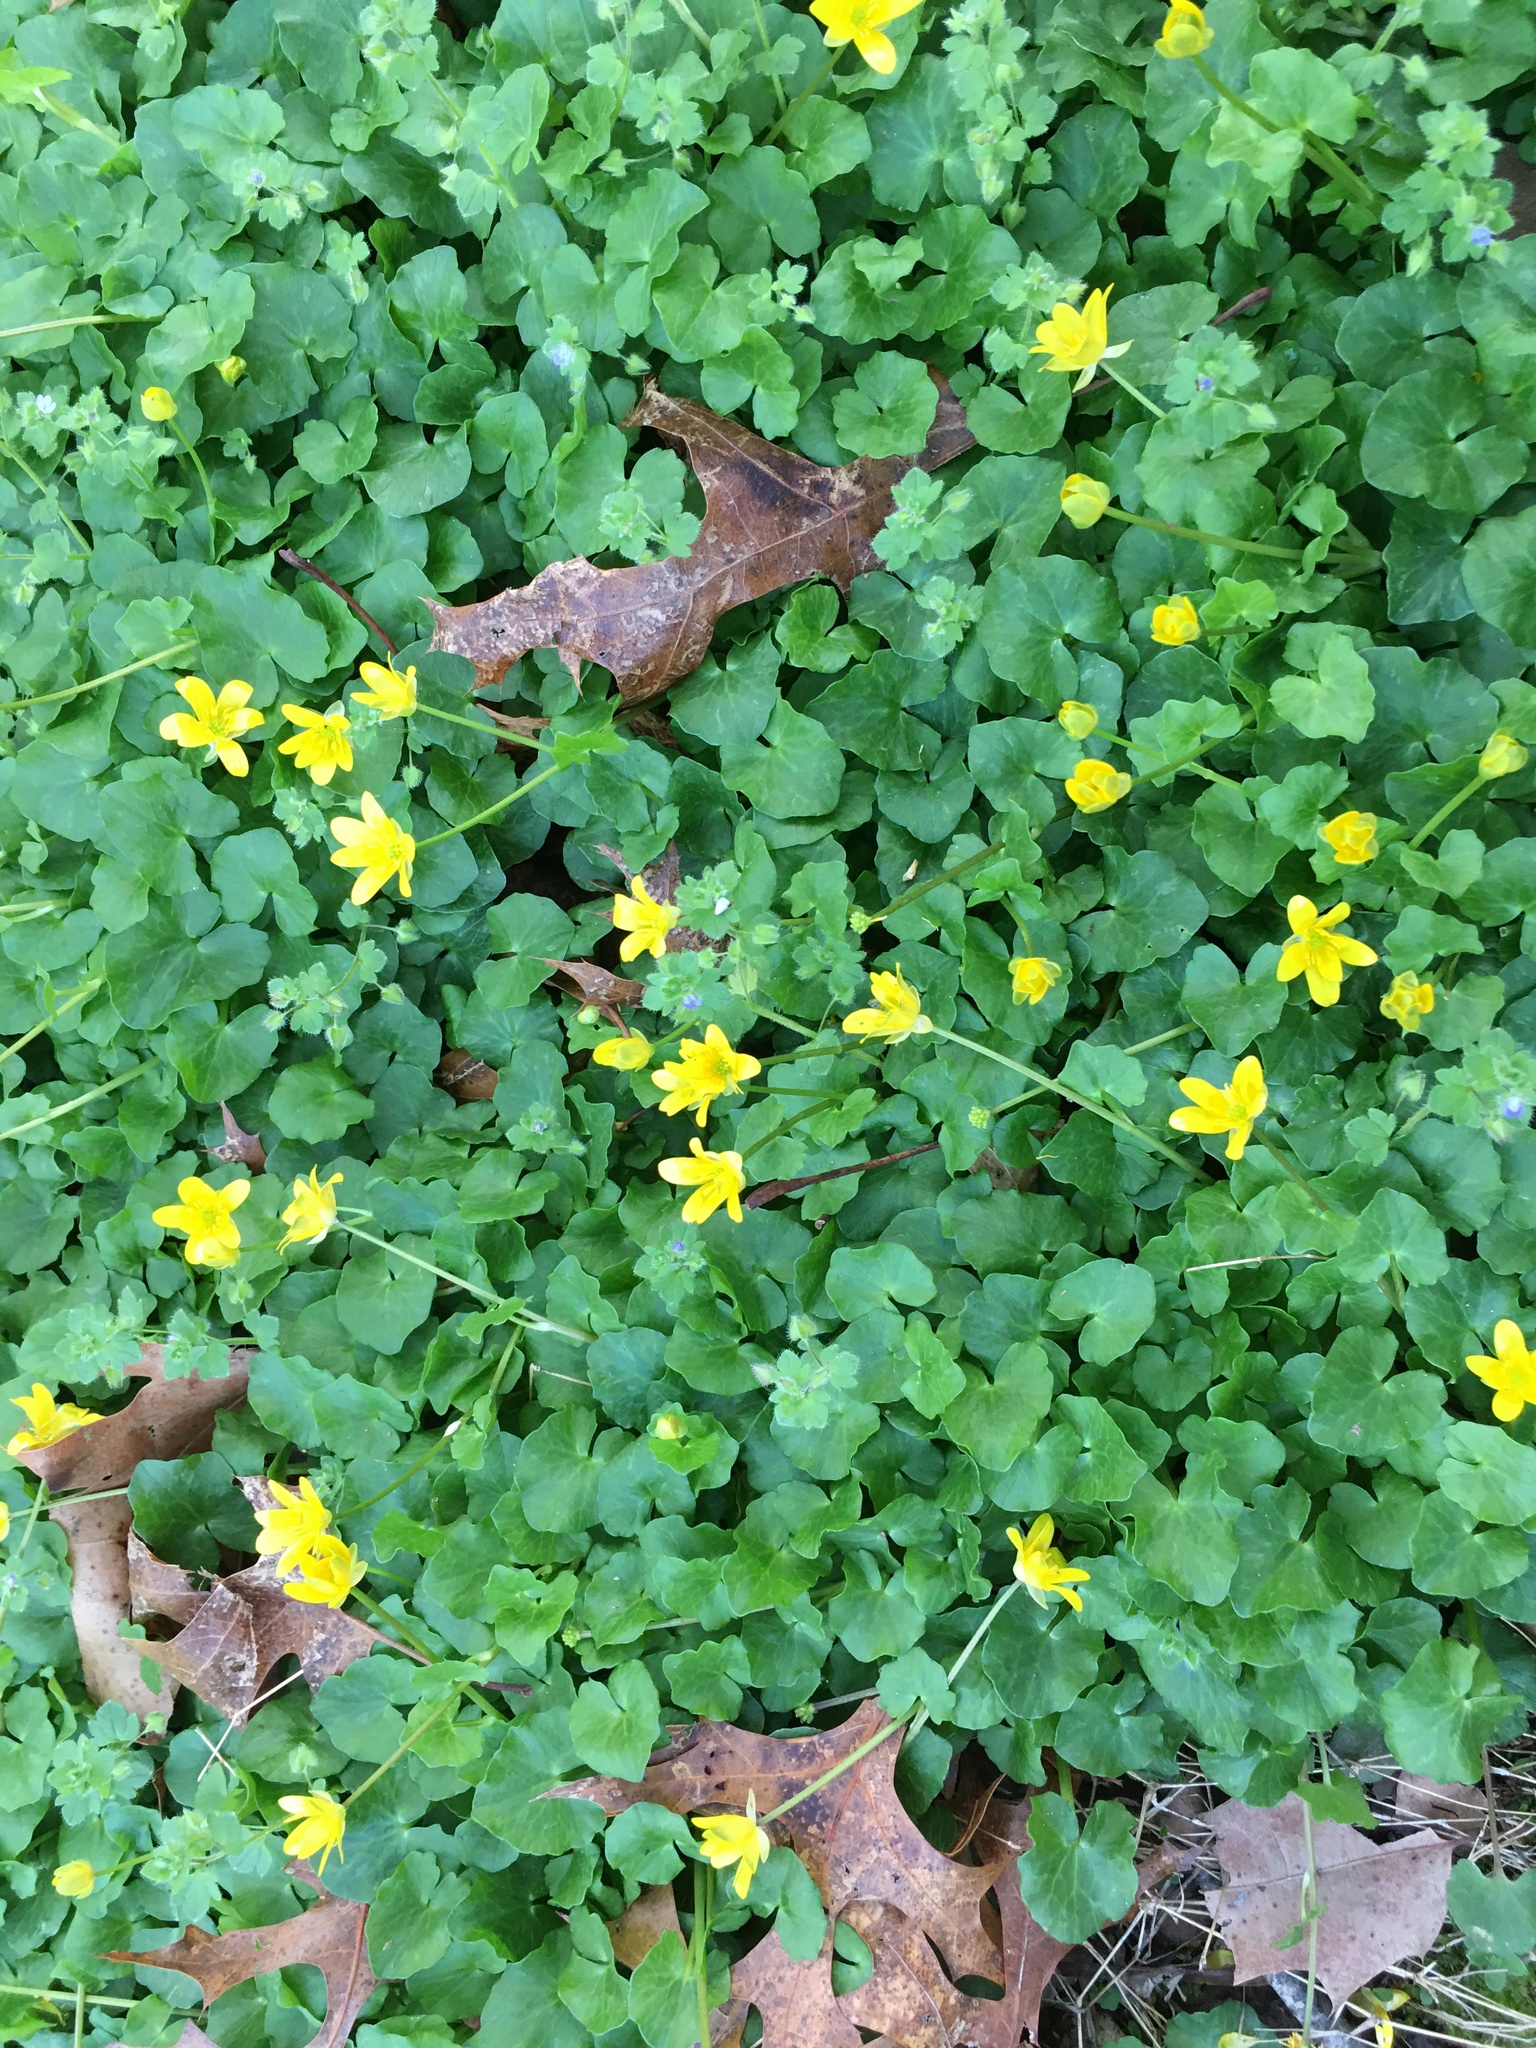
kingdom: Plantae
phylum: Tracheophyta
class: Magnoliopsida
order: Ranunculales
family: Ranunculaceae
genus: Ficaria
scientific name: Ficaria verna
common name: Lesser celandine
